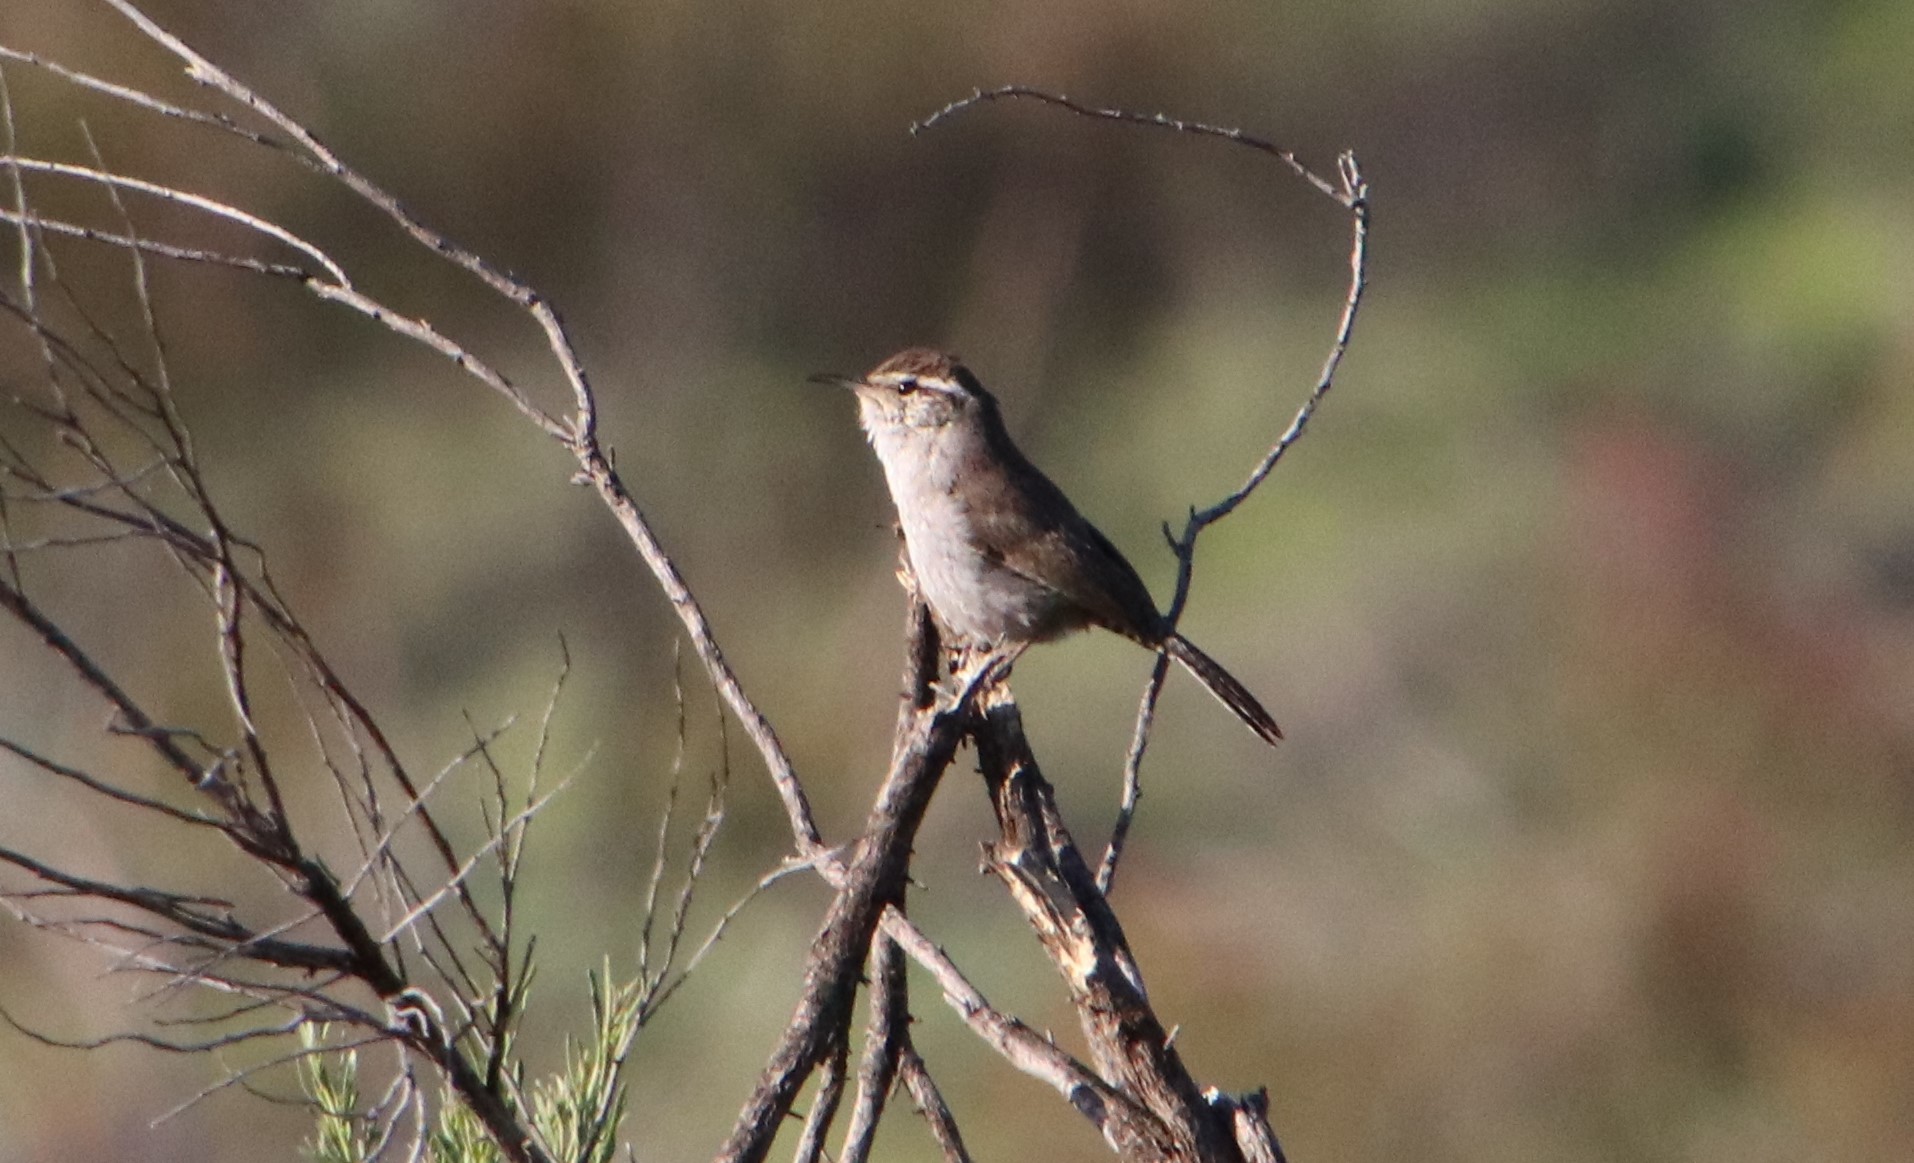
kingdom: Animalia
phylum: Chordata
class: Aves
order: Passeriformes
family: Troglodytidae
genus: Thryomanes
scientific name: Thryomanes bewickii
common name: Bewick's wren
